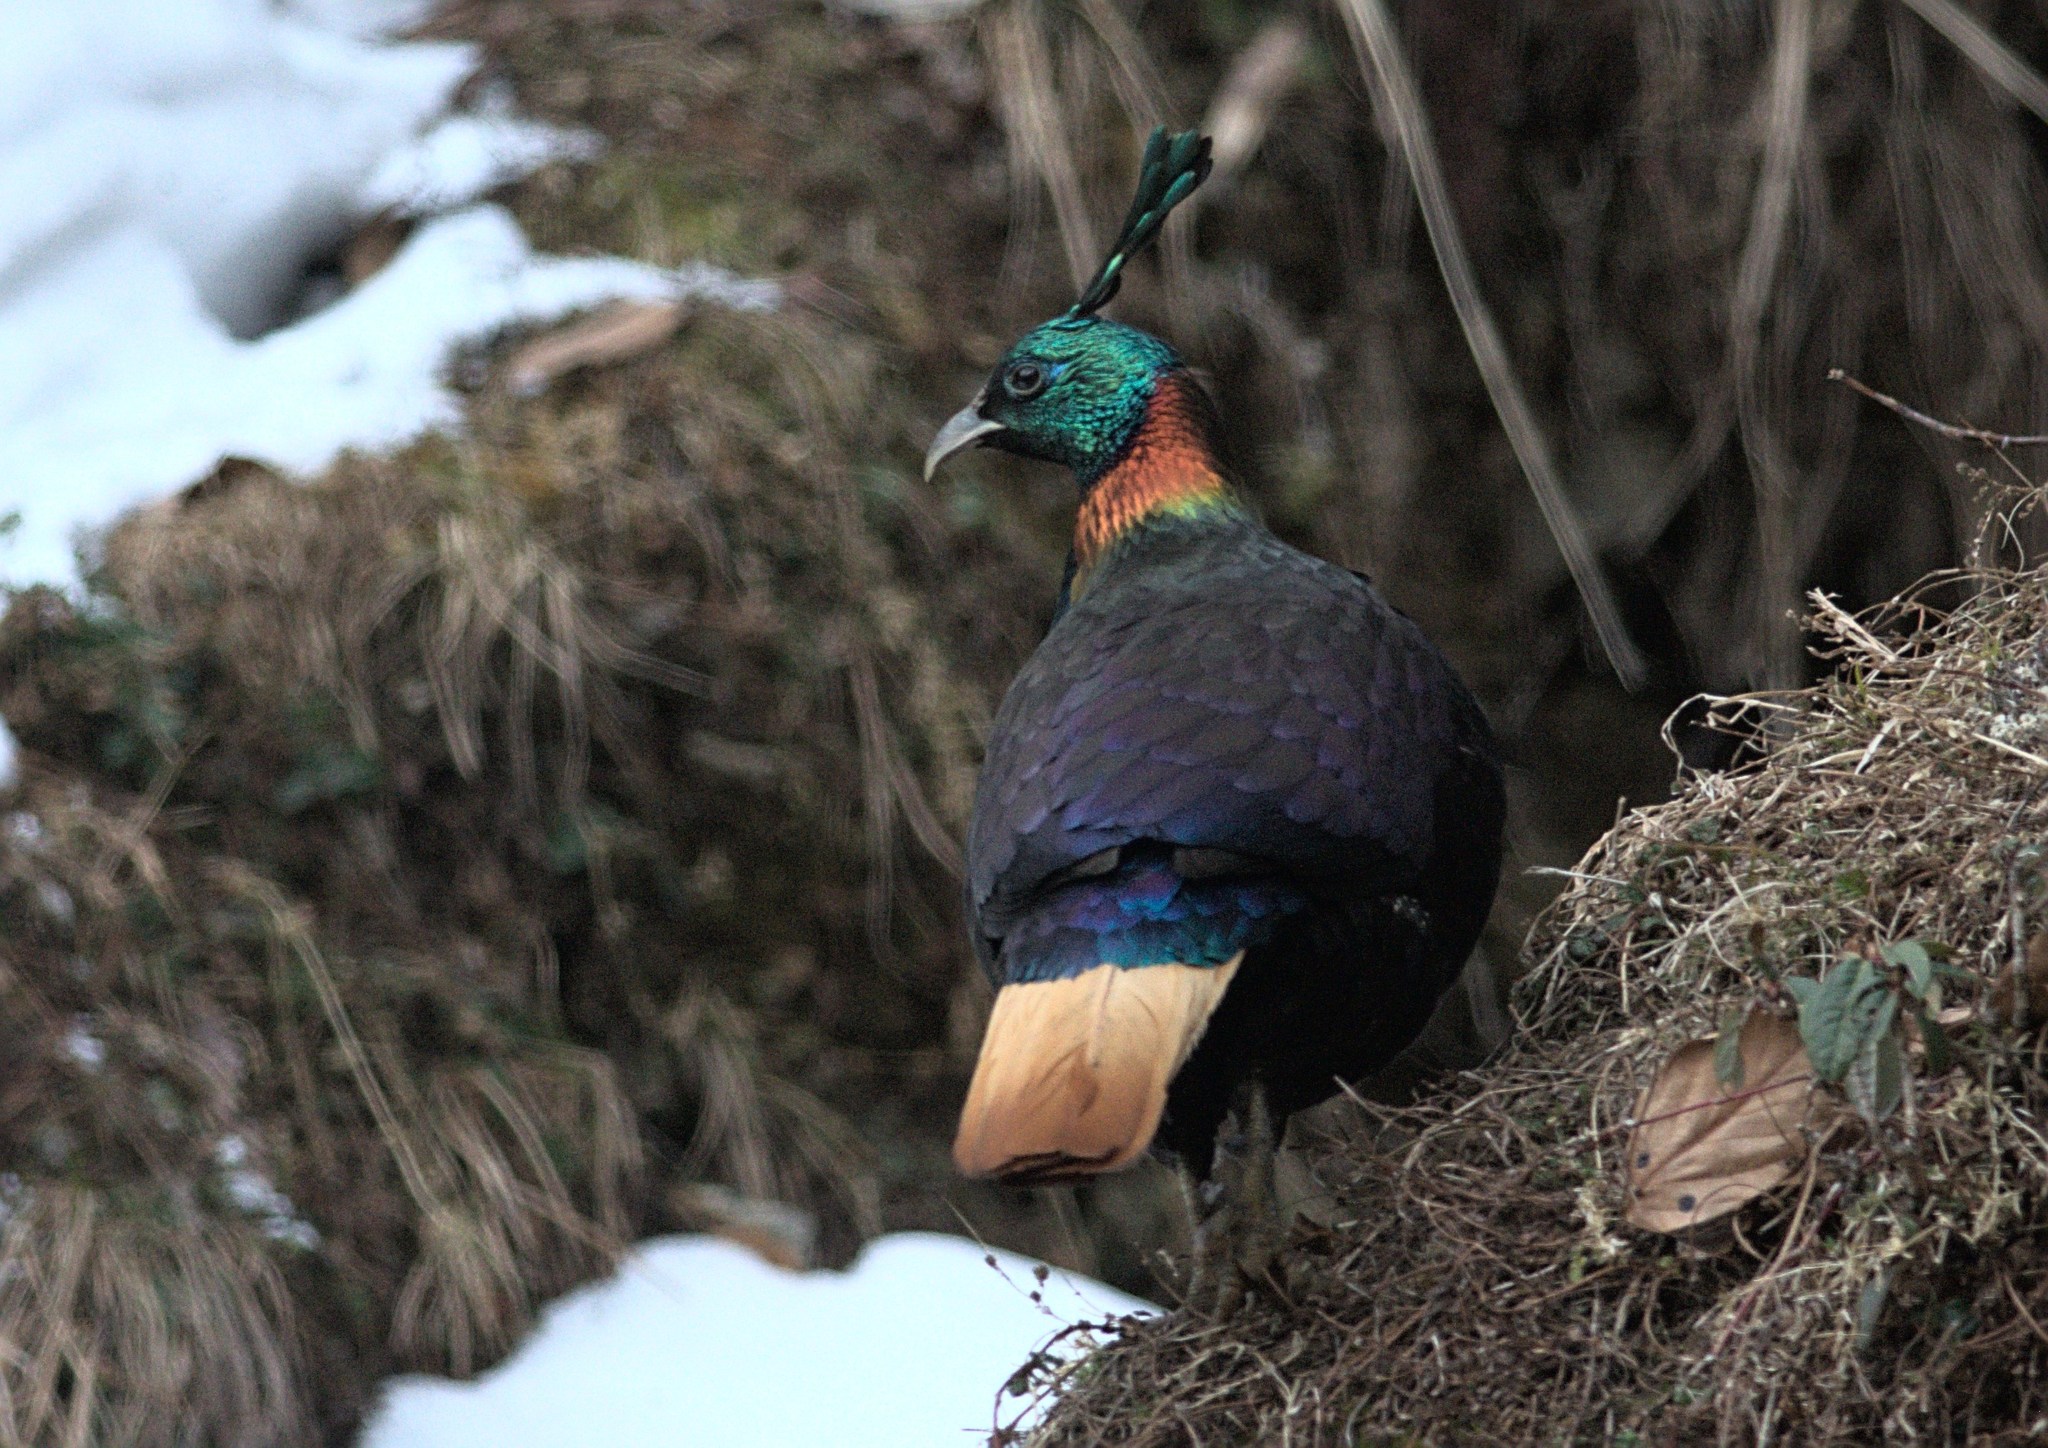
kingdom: Animalia
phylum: Chordata
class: Aves
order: Galliformes
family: Phasianidae
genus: Lophophorus
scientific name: Lophophorus impejanus
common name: Himalayan monal
